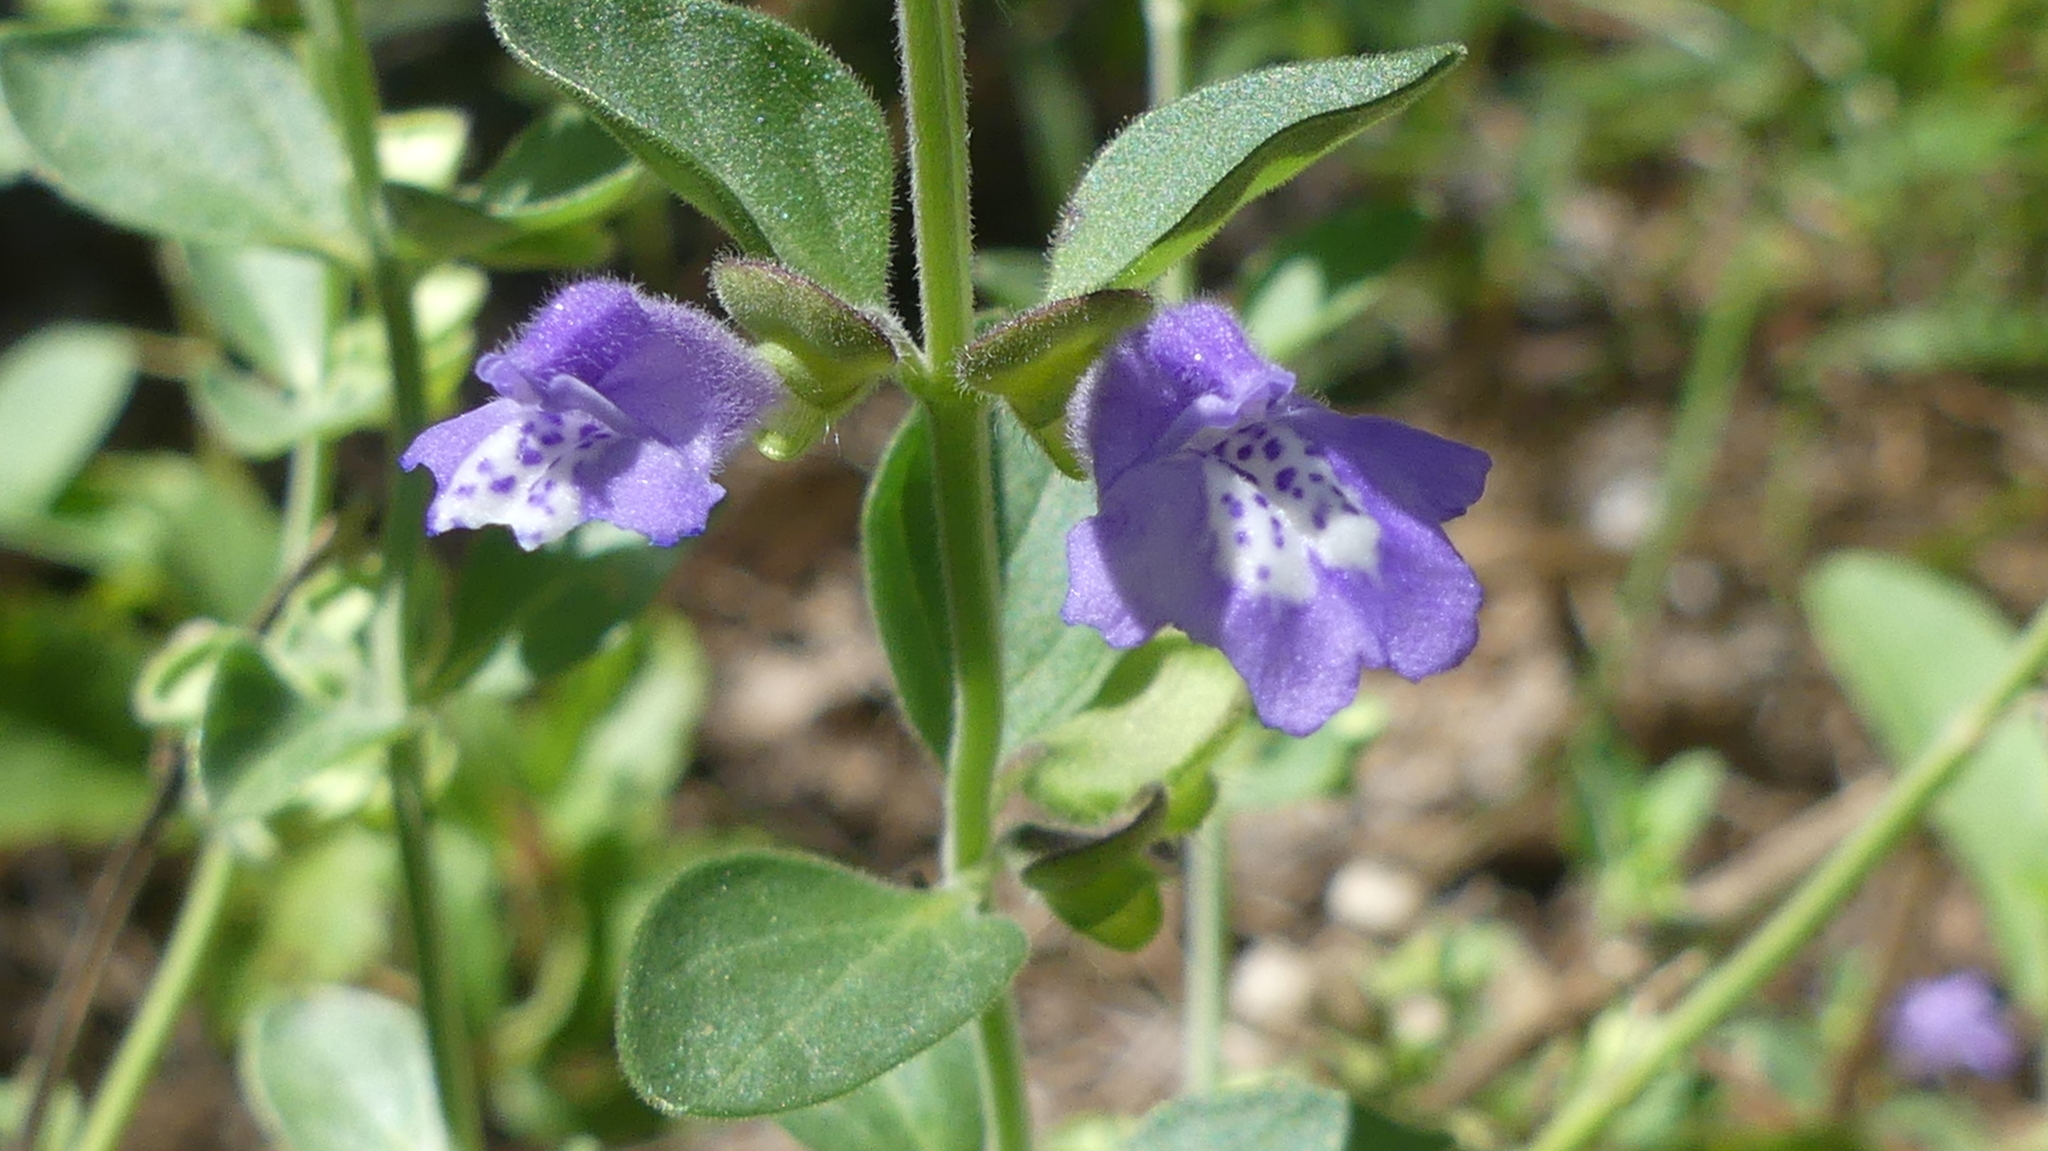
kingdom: Plantae
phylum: Tracheophyta
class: Magnoliopsida
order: Lamiales
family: Lamiaceae
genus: Scutellaria
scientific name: Scutellaria drummondii
